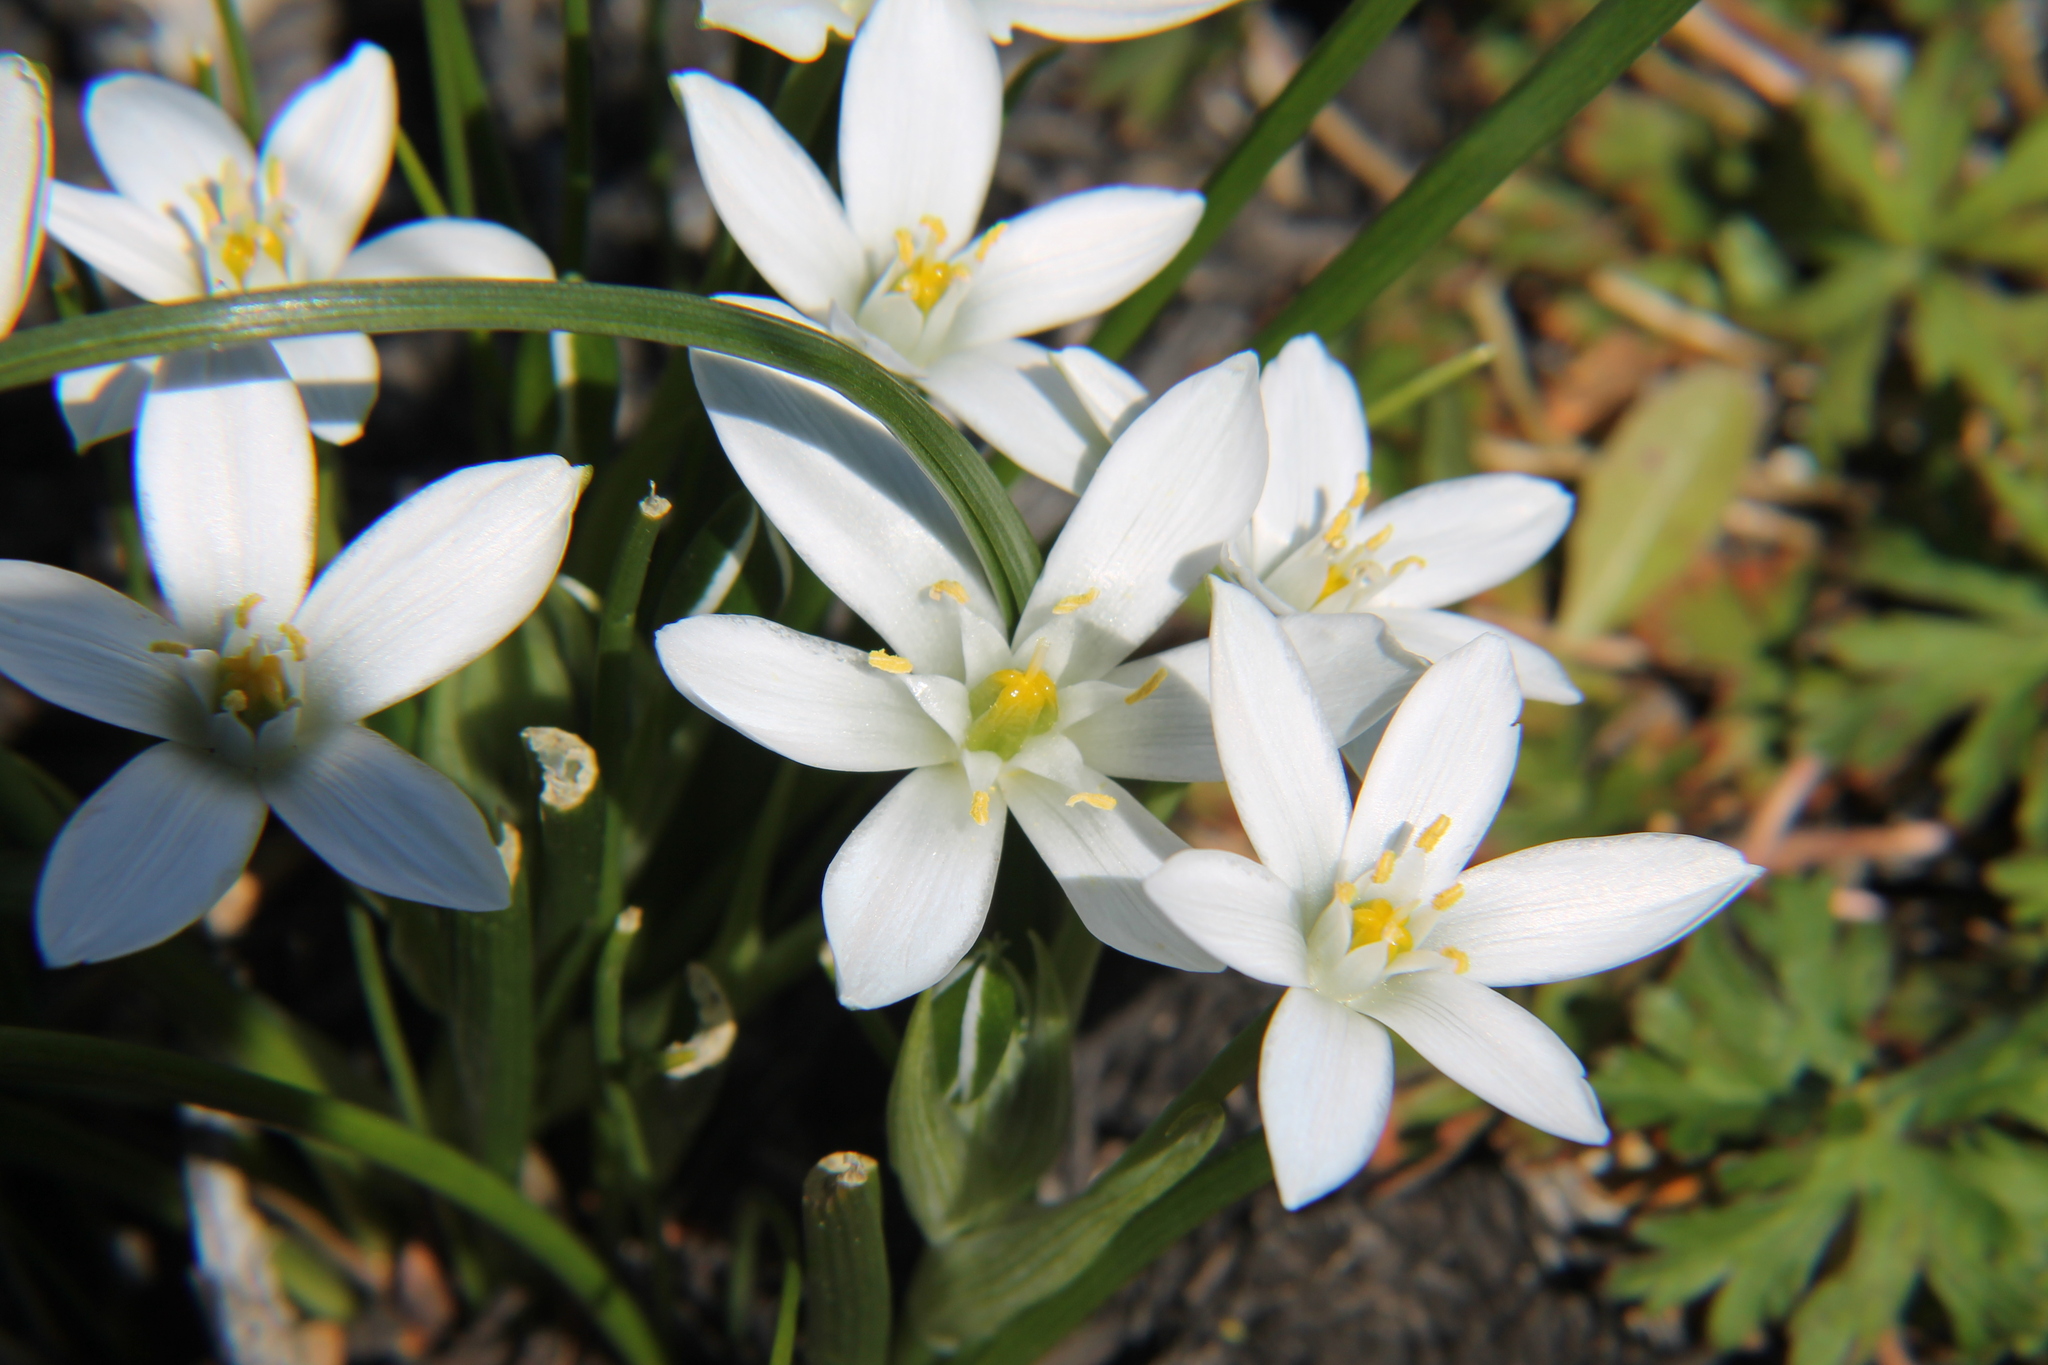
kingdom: Plantae
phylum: Tracheophyta
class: Liliopsida
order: Asparagales
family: Asparagaceae
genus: Ornithogalum
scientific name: Ornithogalum umbellatum
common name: Garden star-of-bethlehem
